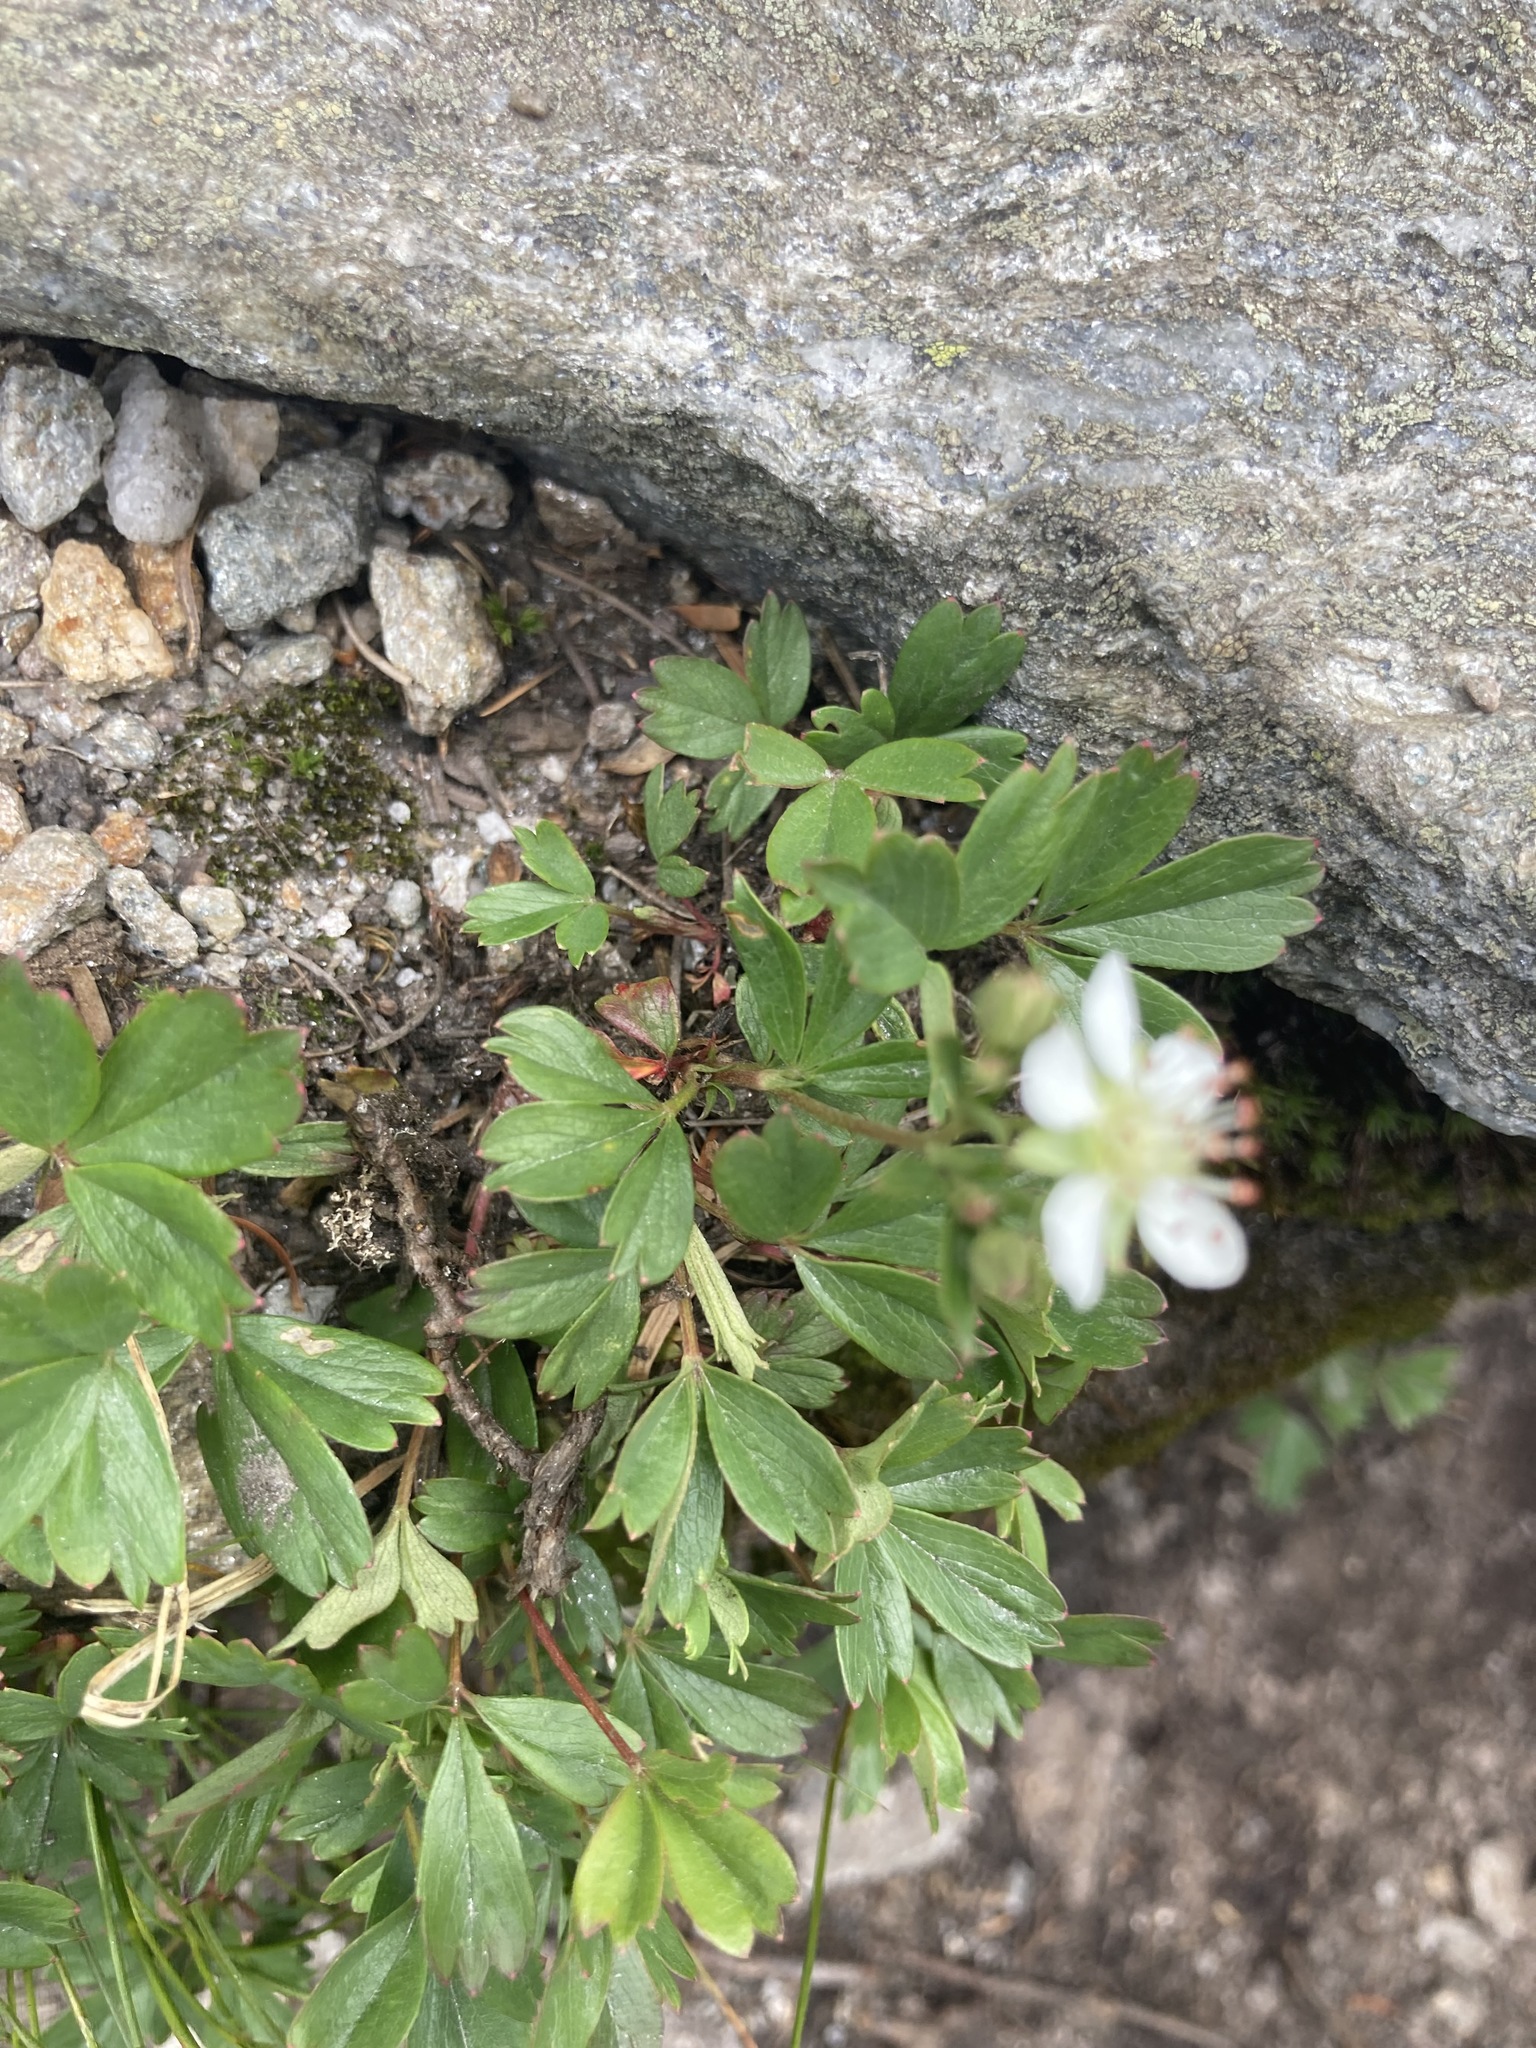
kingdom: Plantae
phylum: Tracheophyta
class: Magnoliopsida
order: Rosales
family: Rosaceae
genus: Sibbaldia
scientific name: Sibbaldia tridentata
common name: Three-toothed cinquefoil
